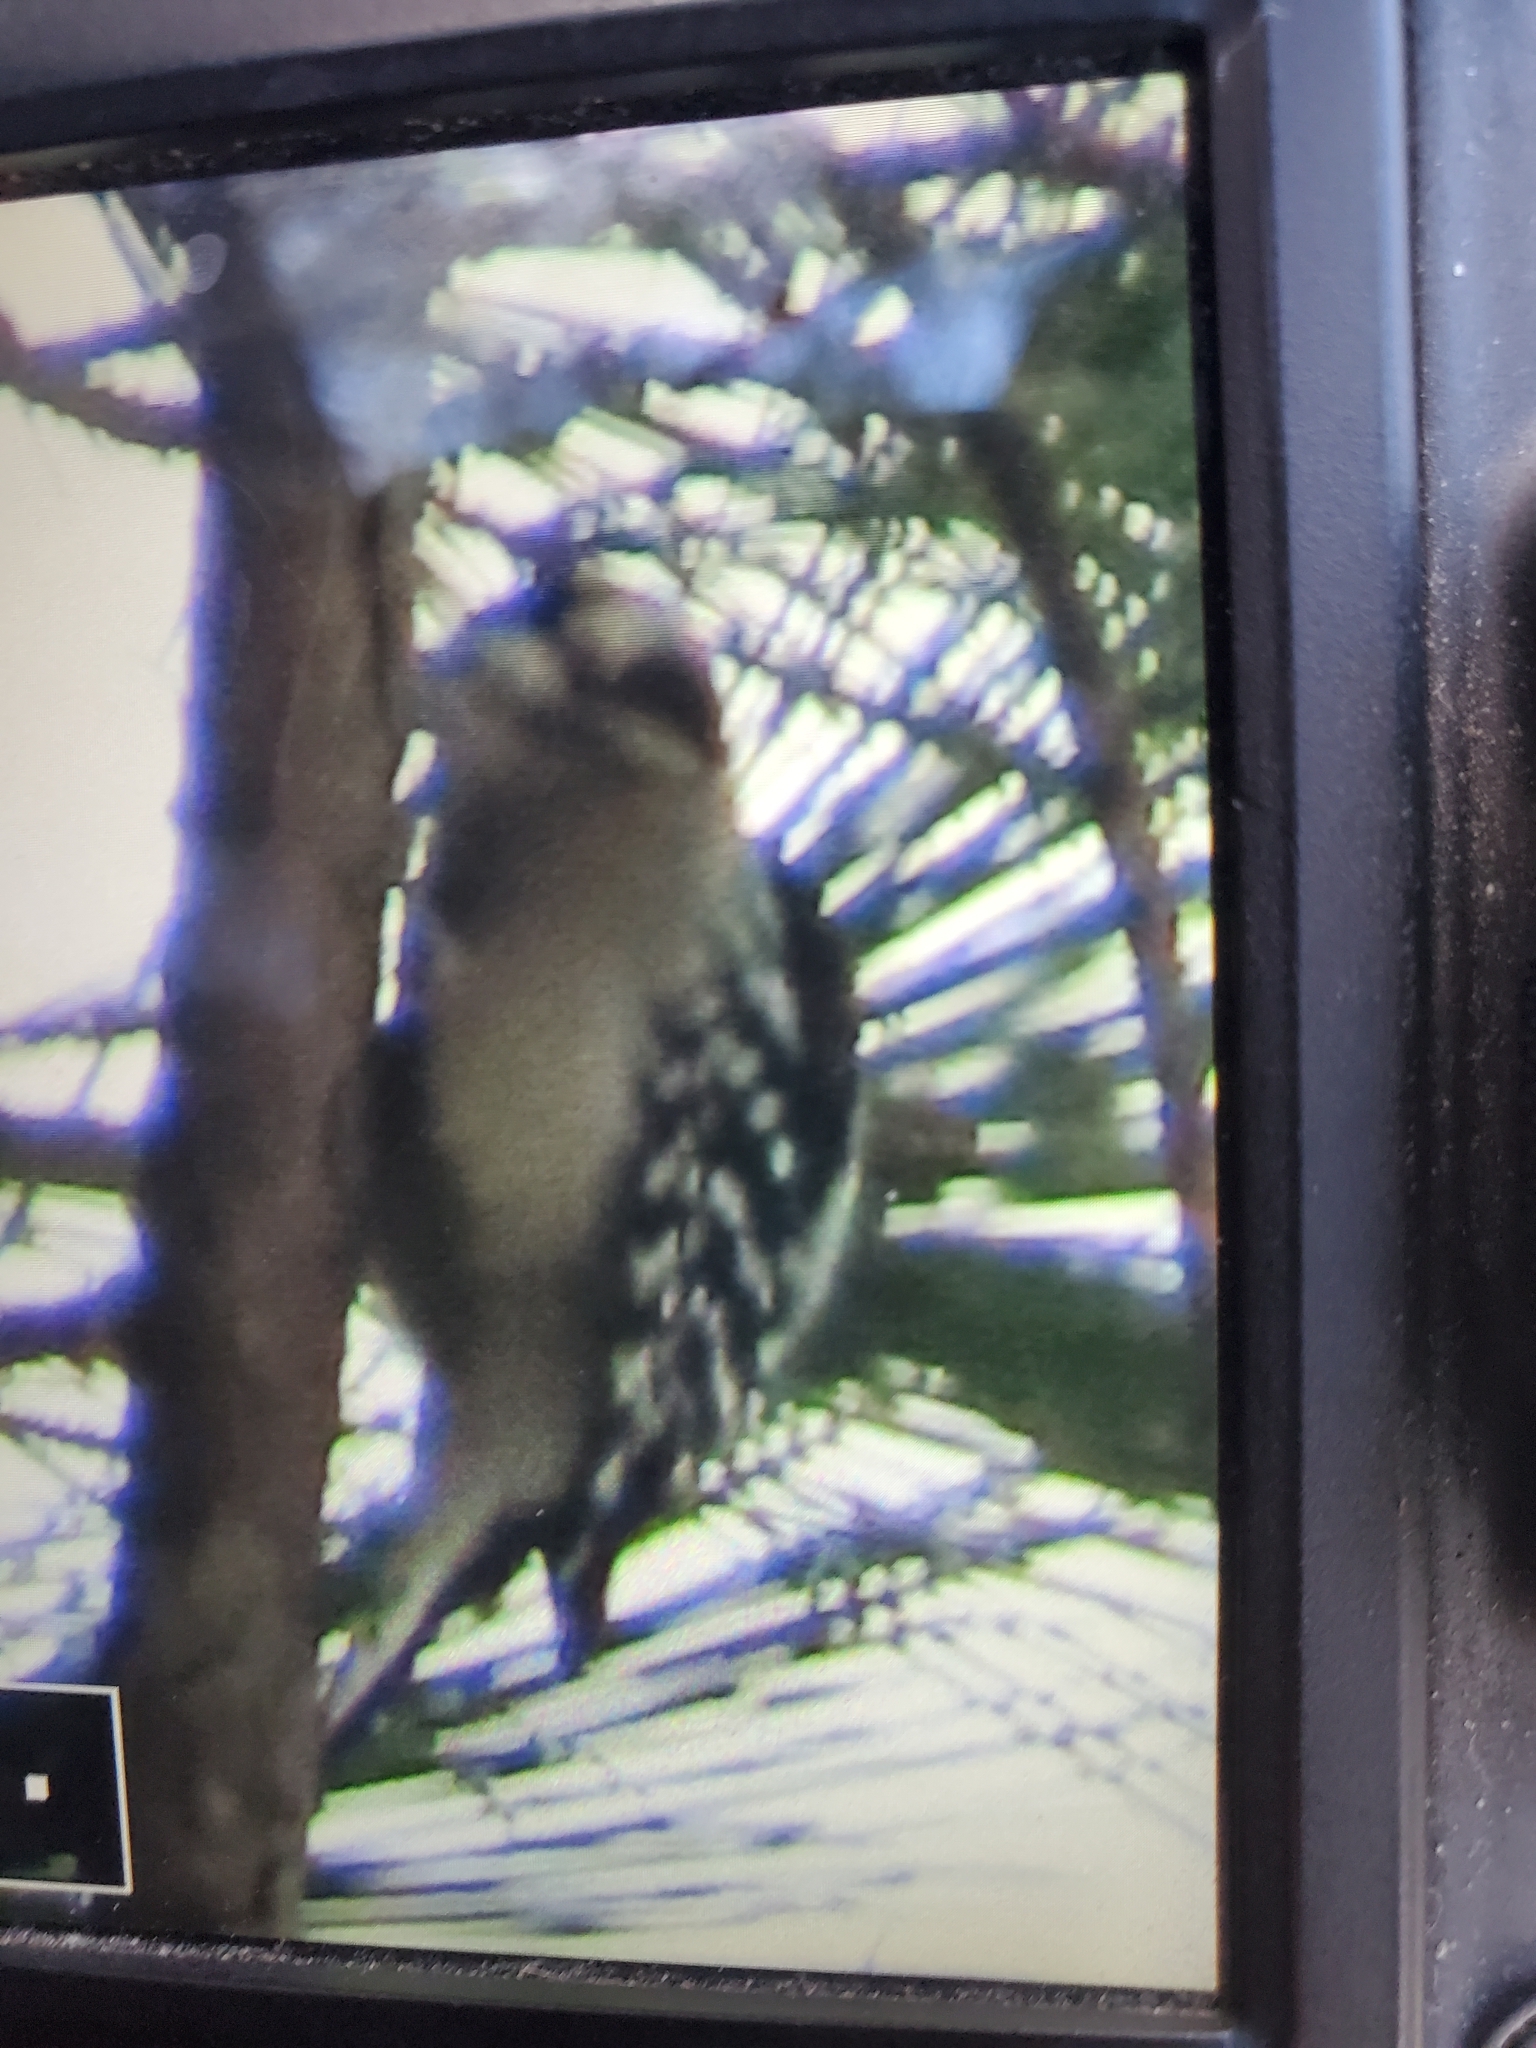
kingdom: Animalia
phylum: Chordata
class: Aves
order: Piciformes
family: Picidae
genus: Dryobates
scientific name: Dryobates pubescens
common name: Downy woodpecker
